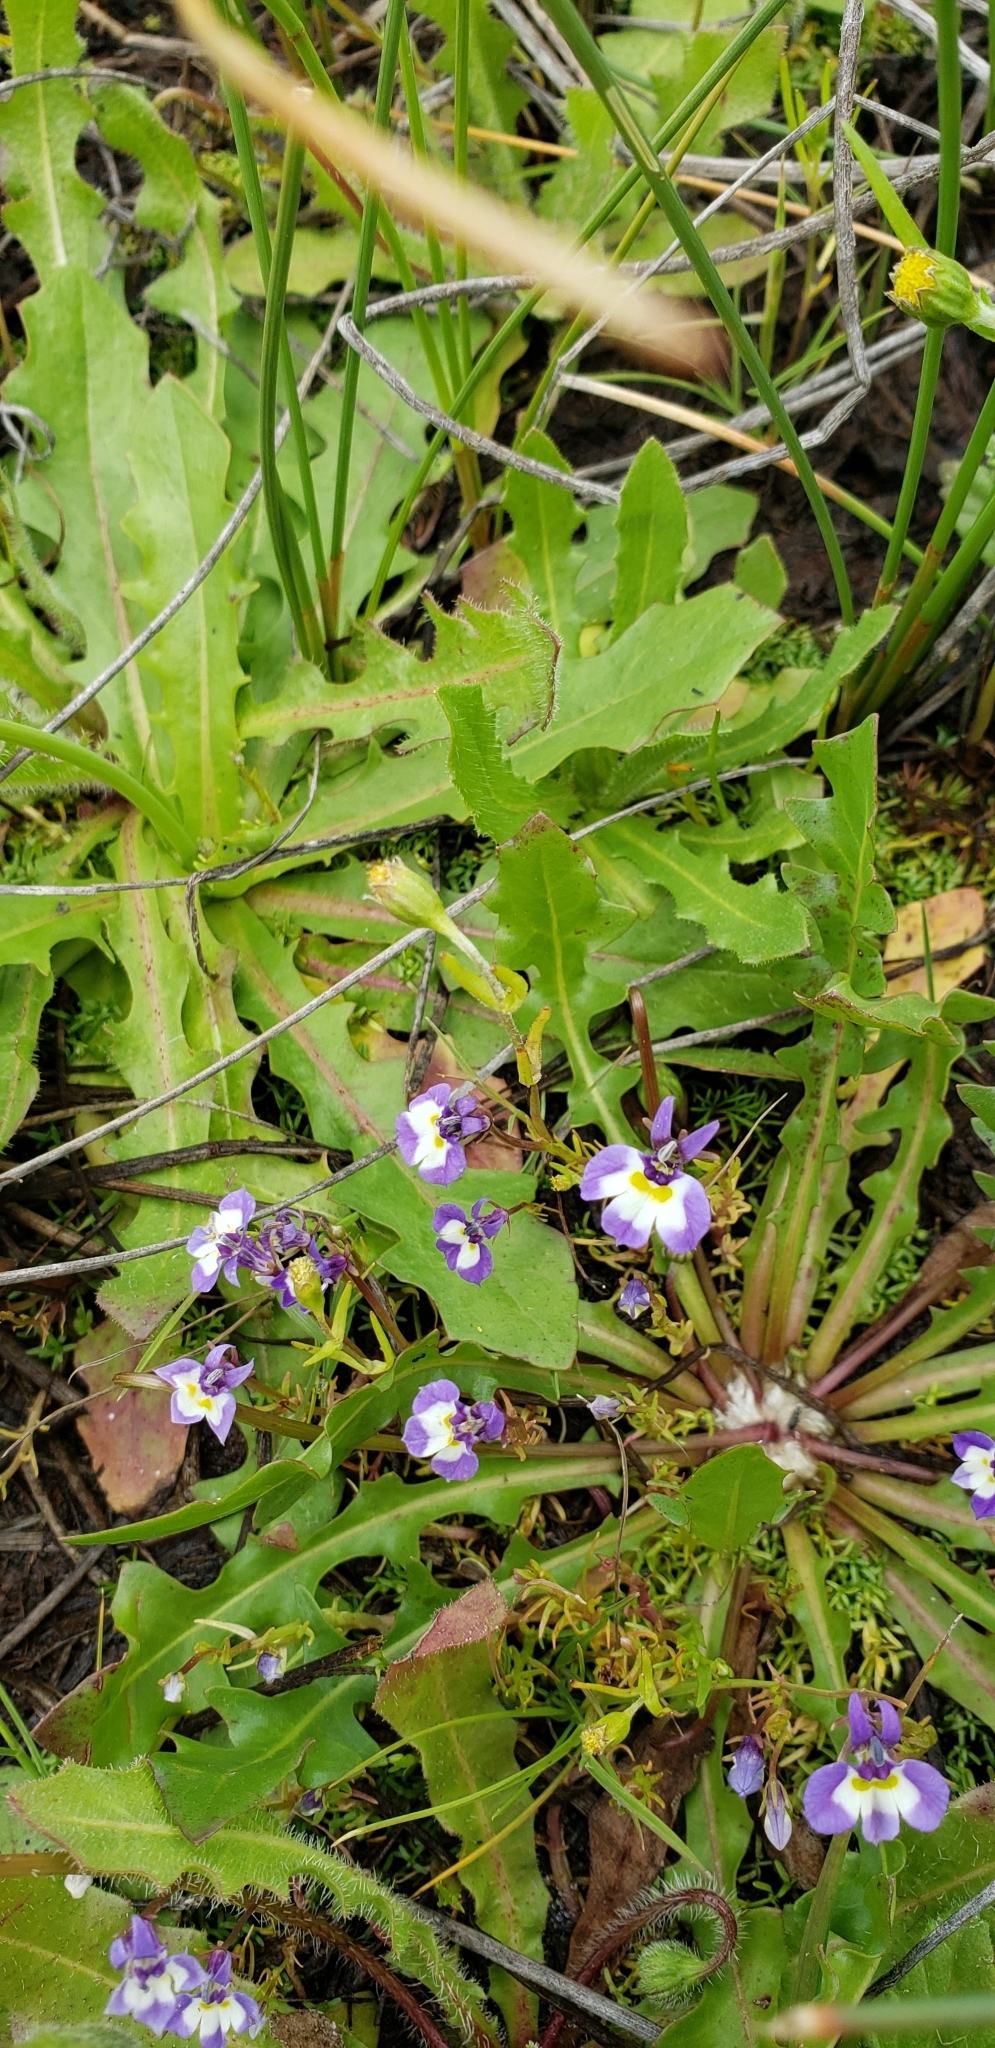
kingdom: Plantae
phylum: Tracheophyta
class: Magnoliopsida
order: Asterales
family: Campanulaceae
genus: Downingia
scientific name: Downingia bicornuta
